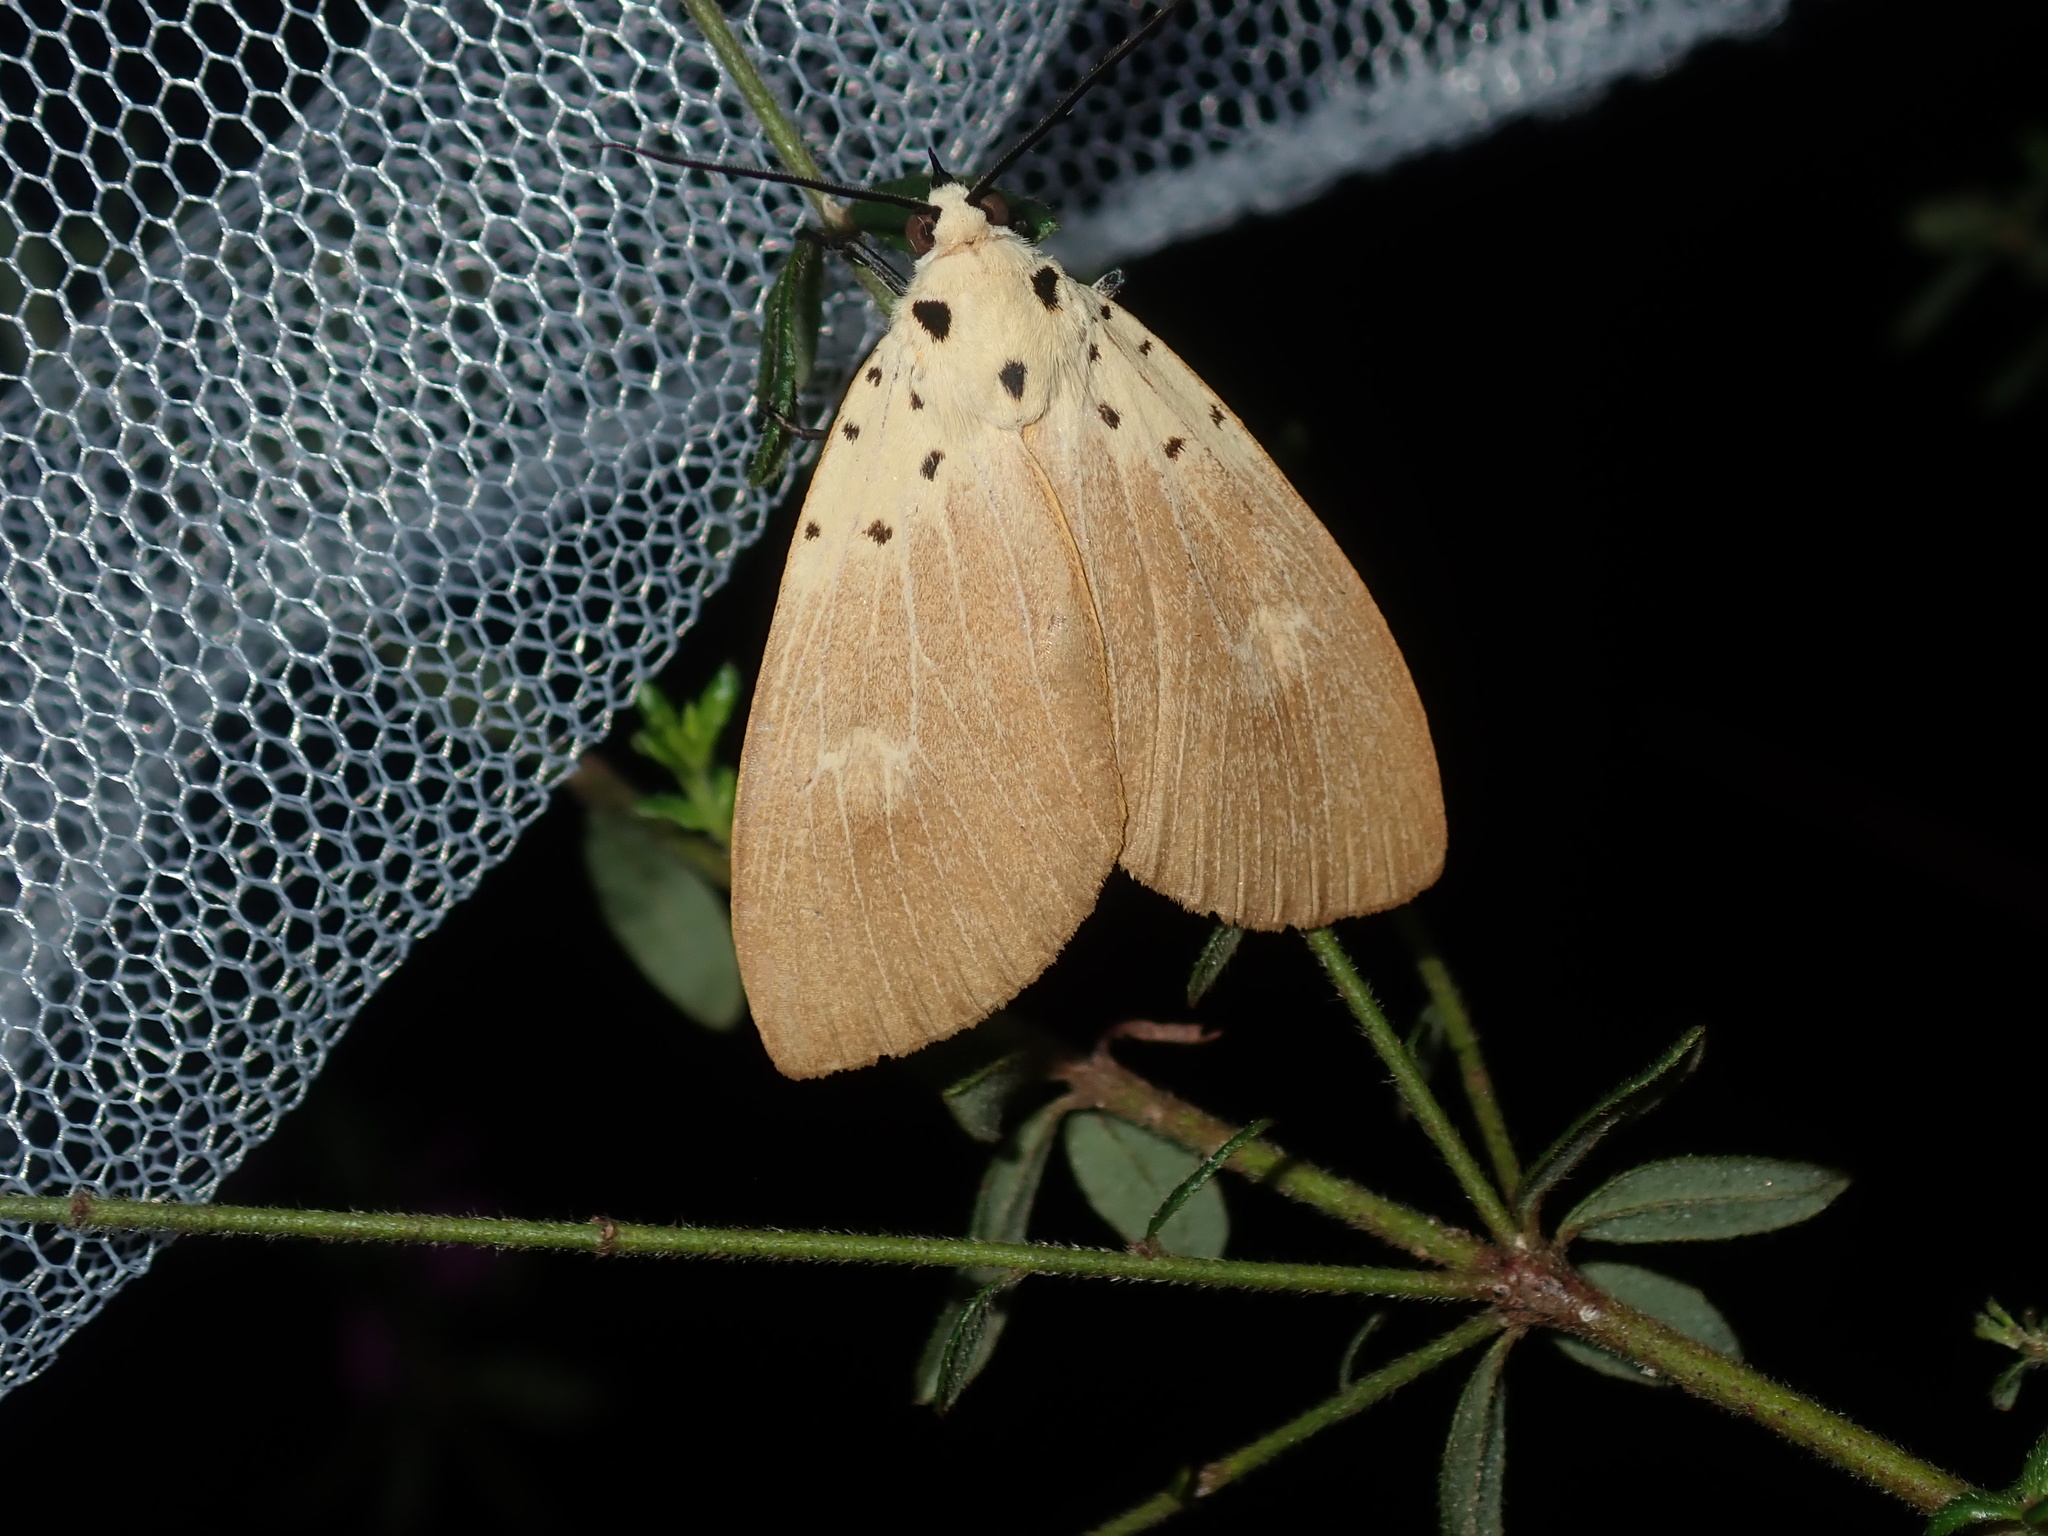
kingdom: Animalia
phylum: Arthropoda
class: Insecta
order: Lepidoptera
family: Erebidae
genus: Asota
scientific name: Asota iodamia
